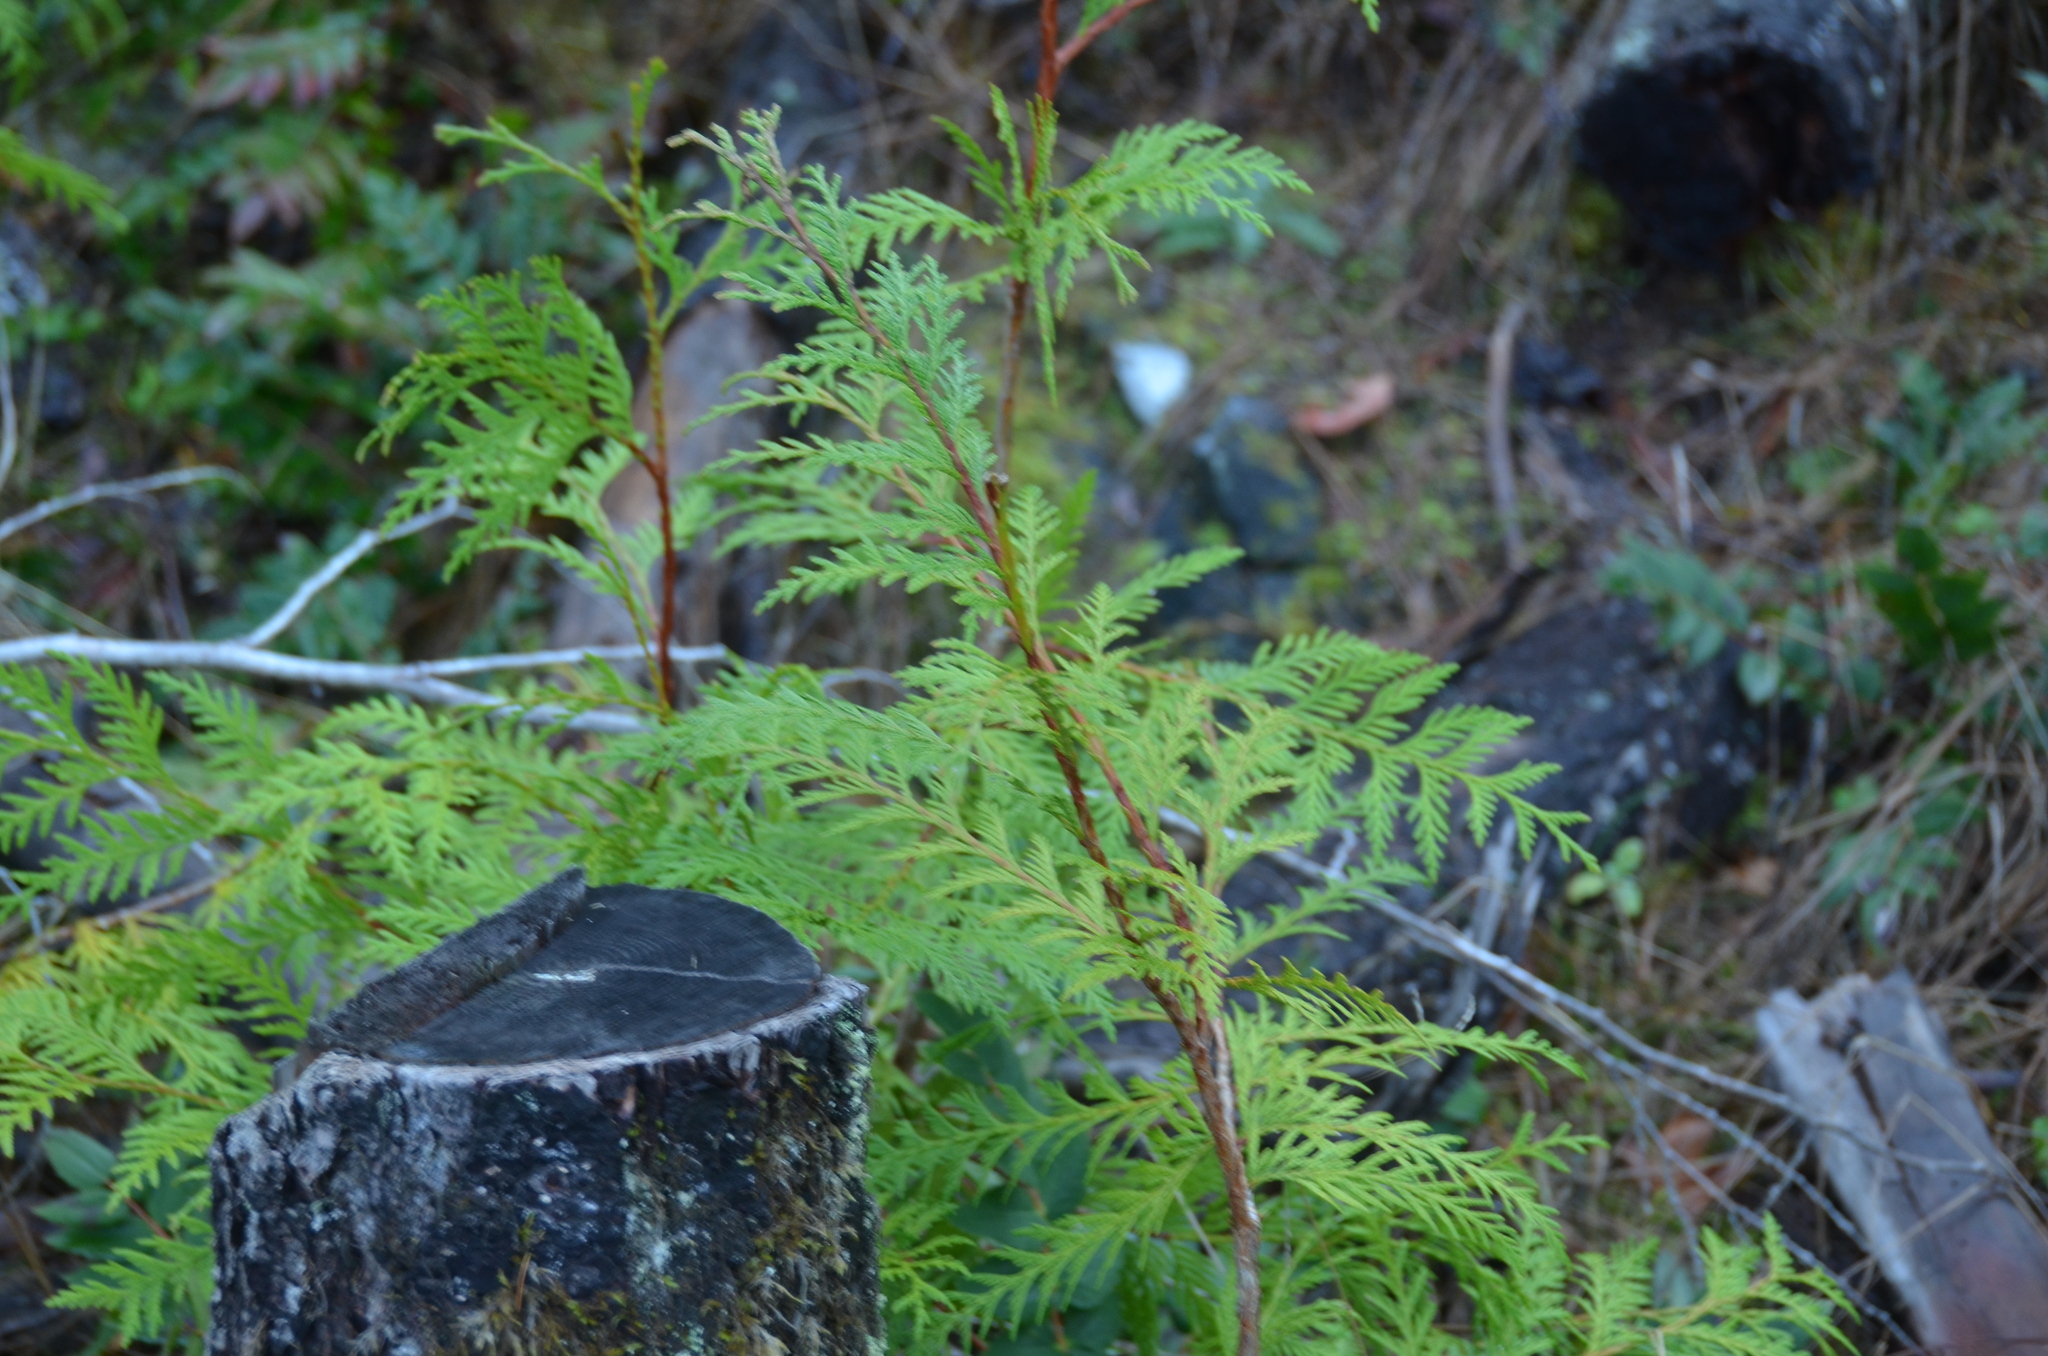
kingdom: Plantae
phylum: Tracheophyta
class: Pinopsida
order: Pinales
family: Cupressaceae
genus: Thuja
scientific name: Thuja plicata
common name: Western red-cedar
